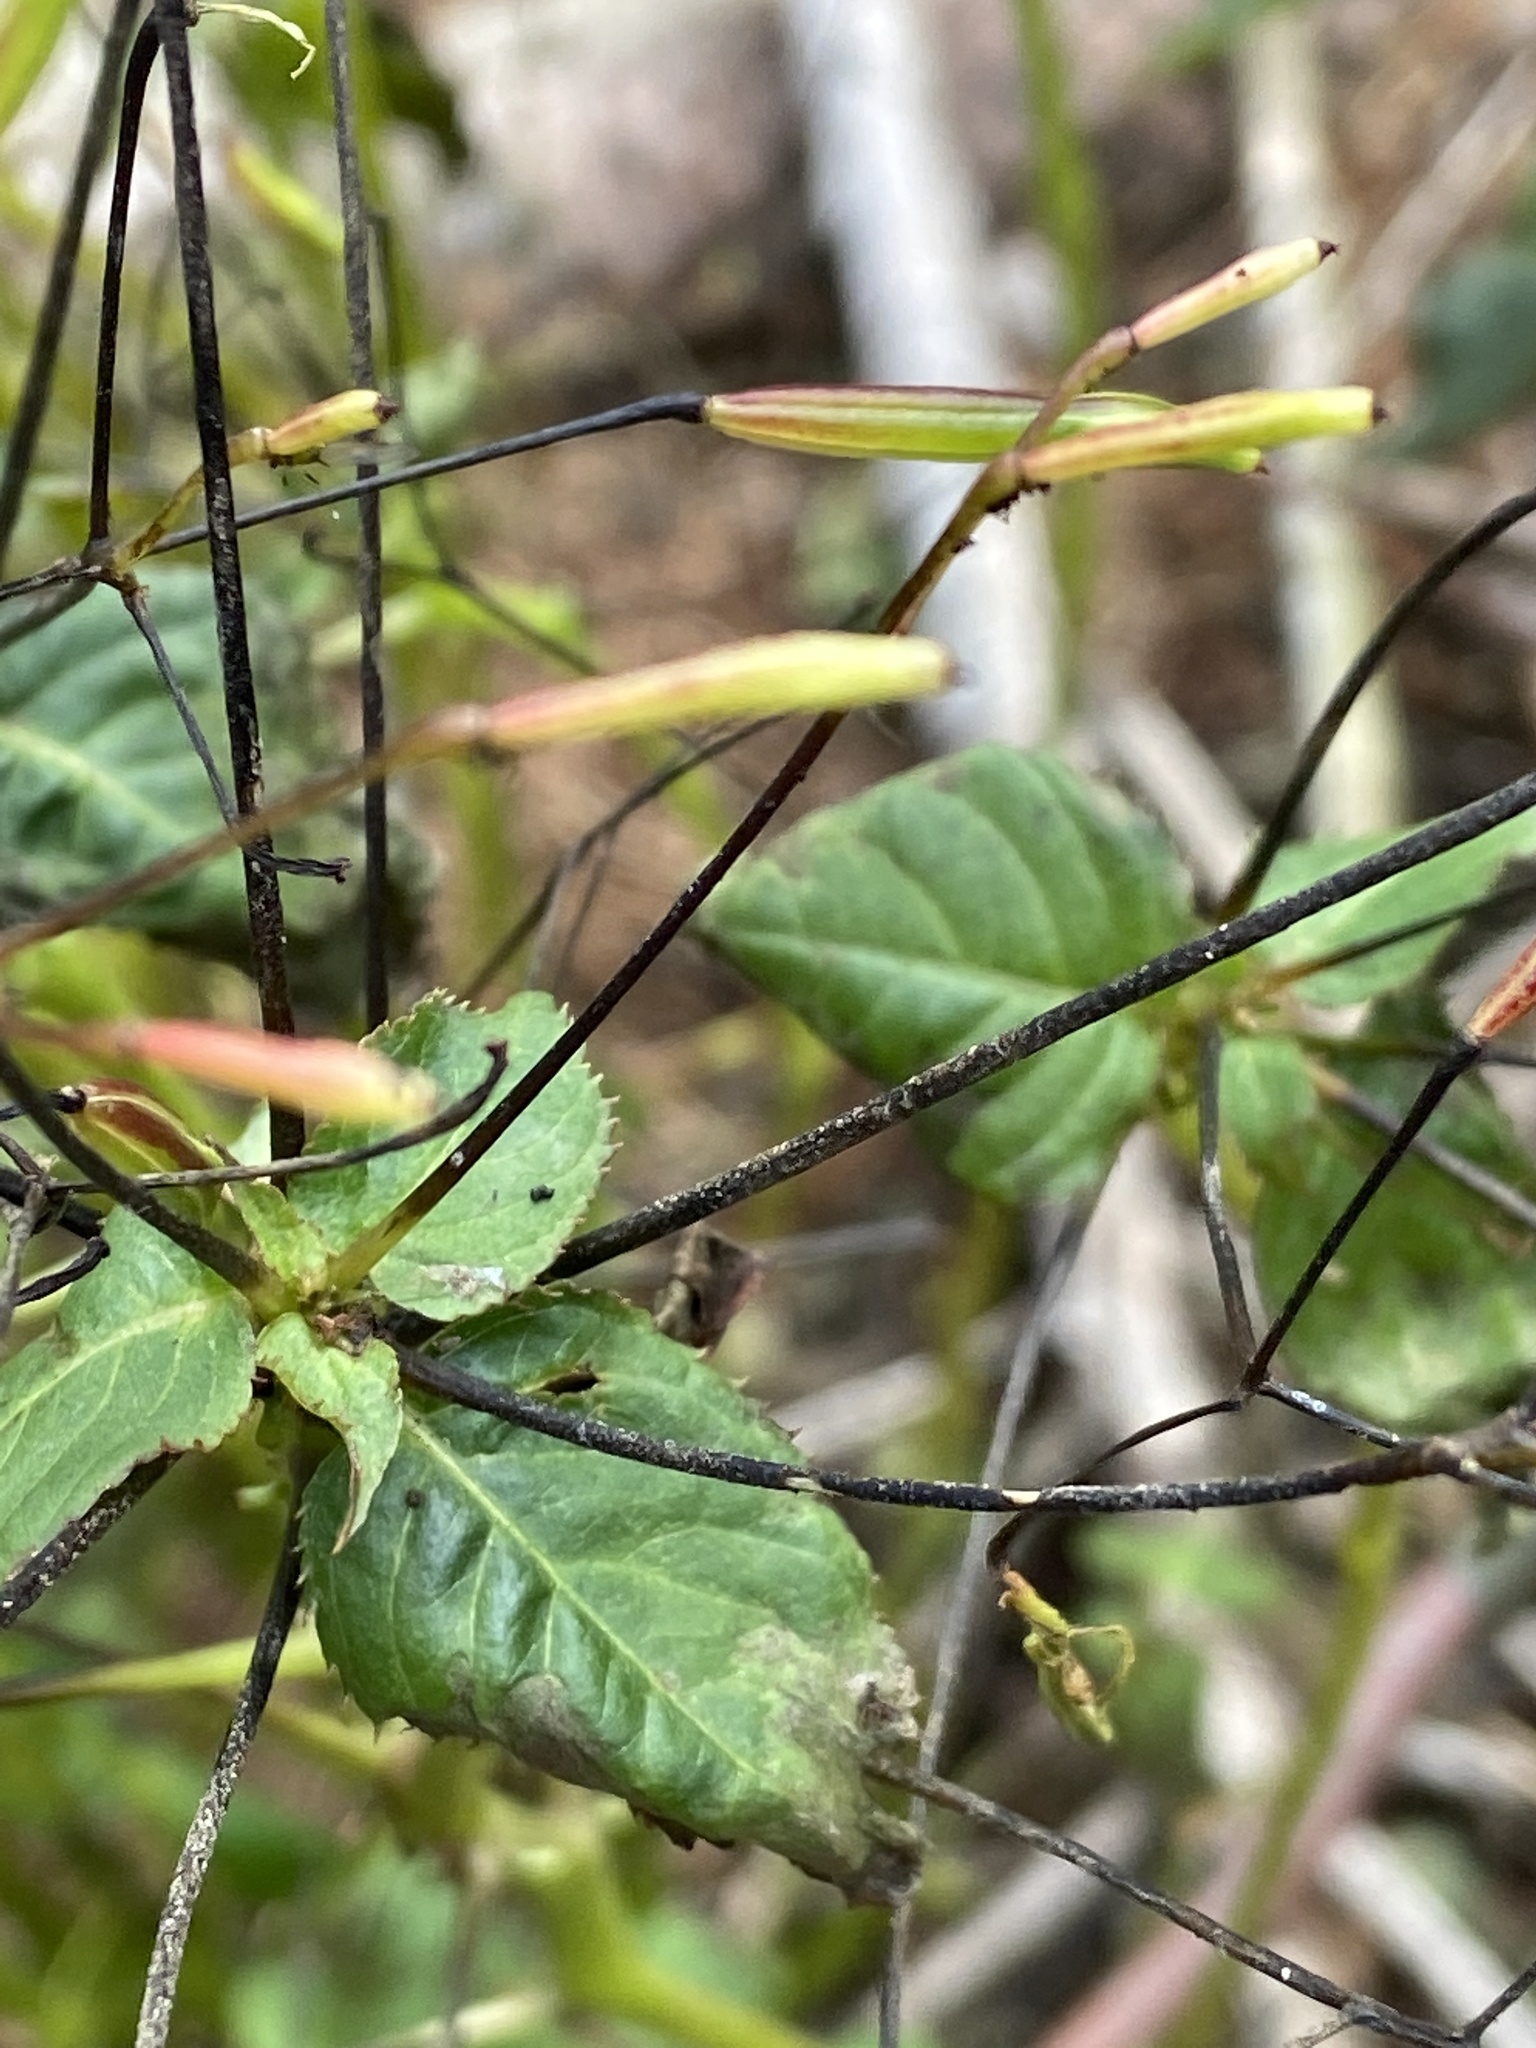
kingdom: Plantae
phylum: Tracheophyta
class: Magnoliopsida
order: Ericales
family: Balsaminaceae
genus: Impatiens
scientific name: Impatiens parviflora
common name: Small balsam
